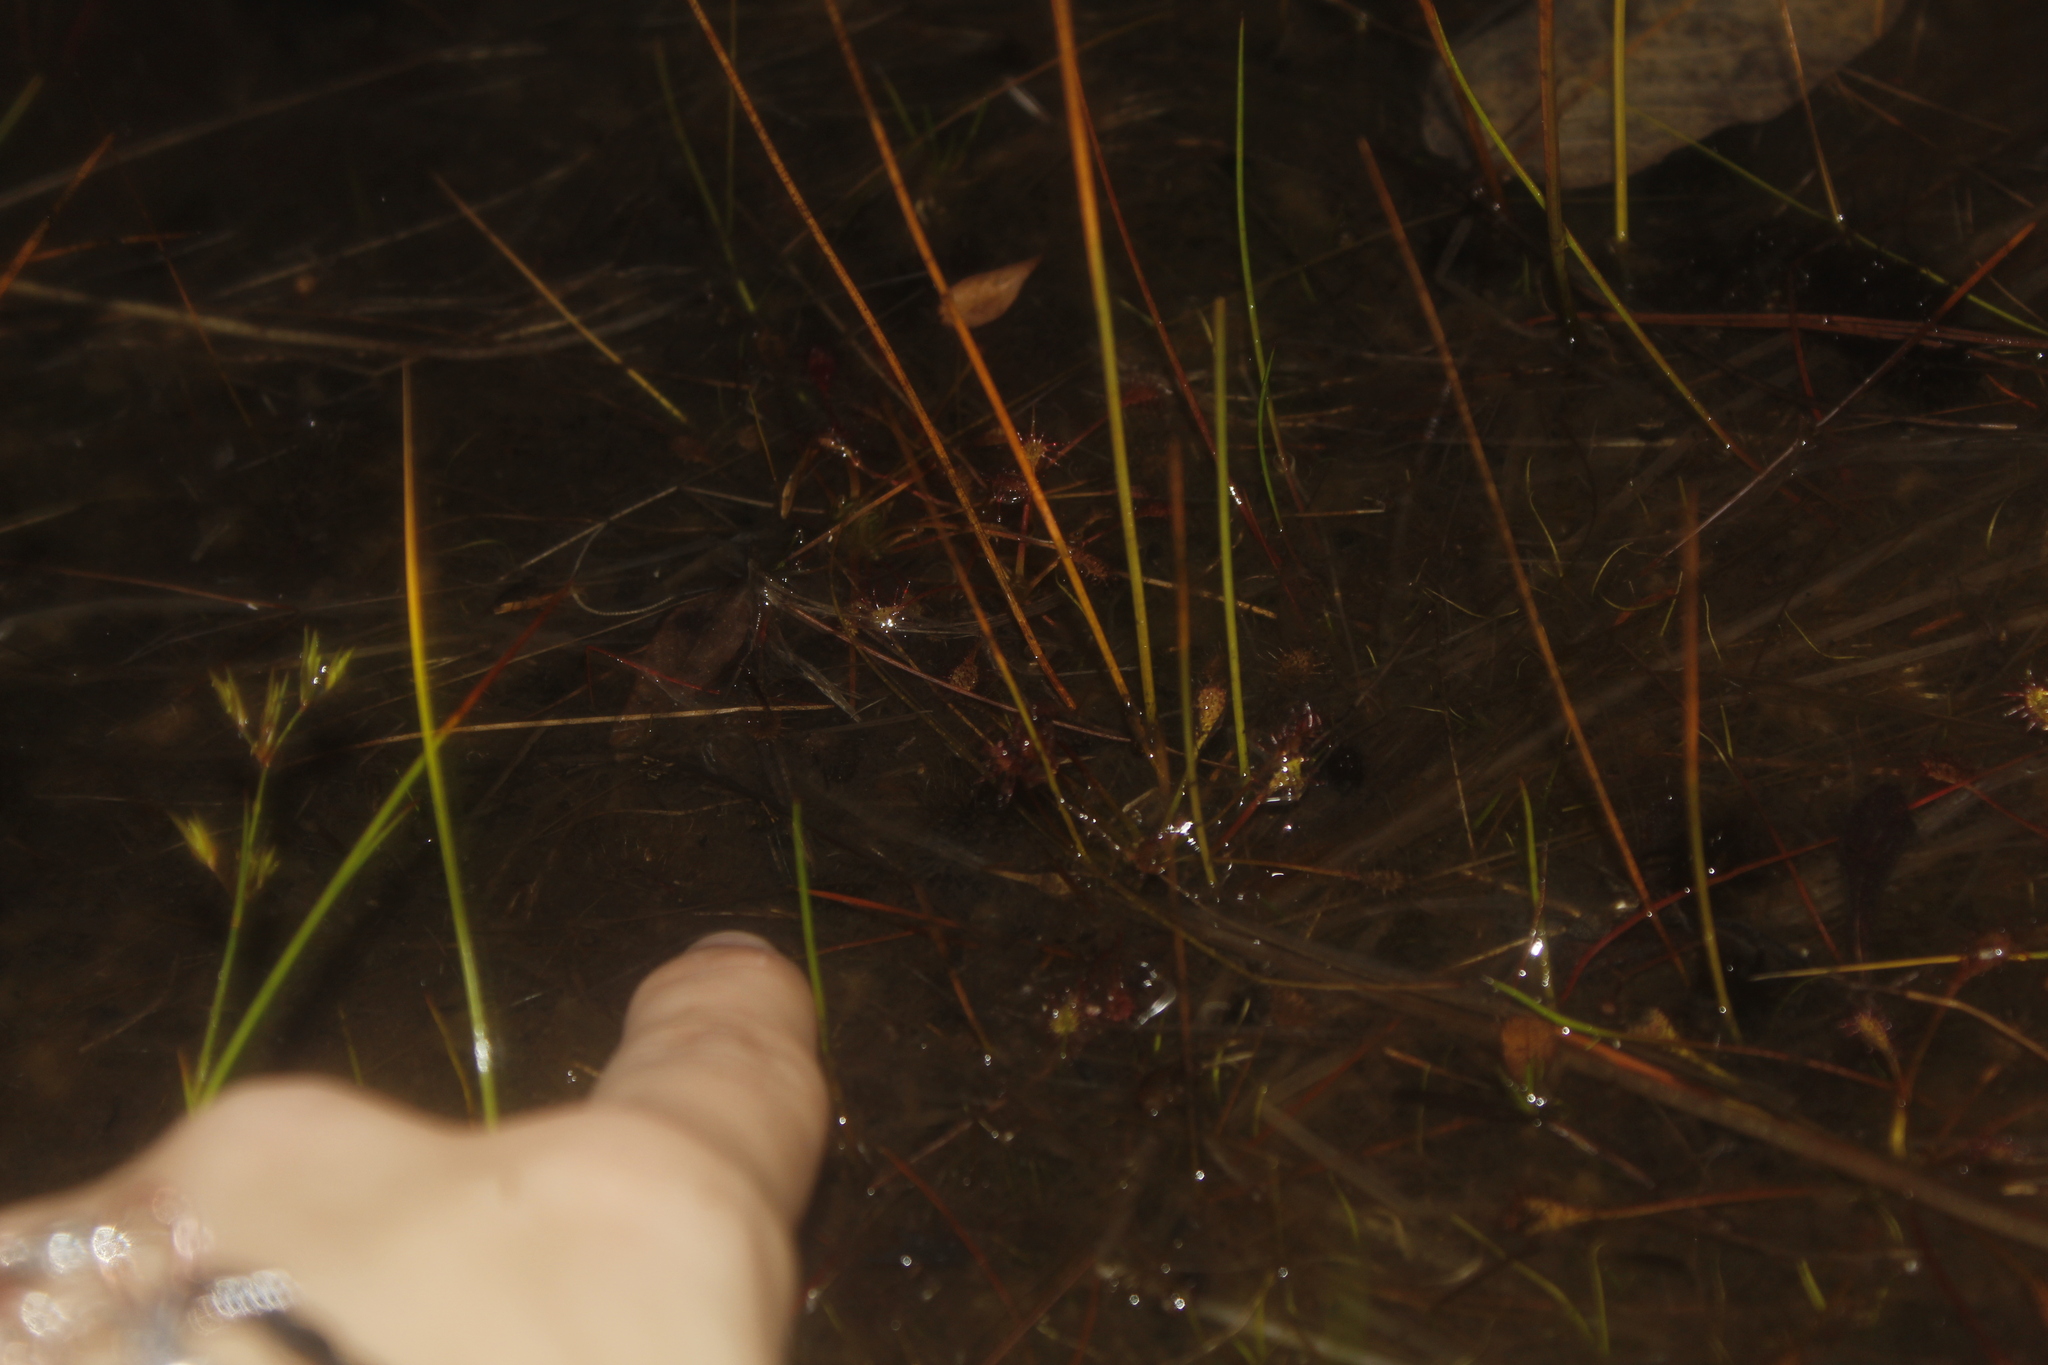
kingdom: Plantae
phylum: Tracheophyta
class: Magnoliopsida
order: Caryophyllales
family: Droseraceae
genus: Drosera
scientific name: Drosera intermedia
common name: Oblong-leaved sundew
